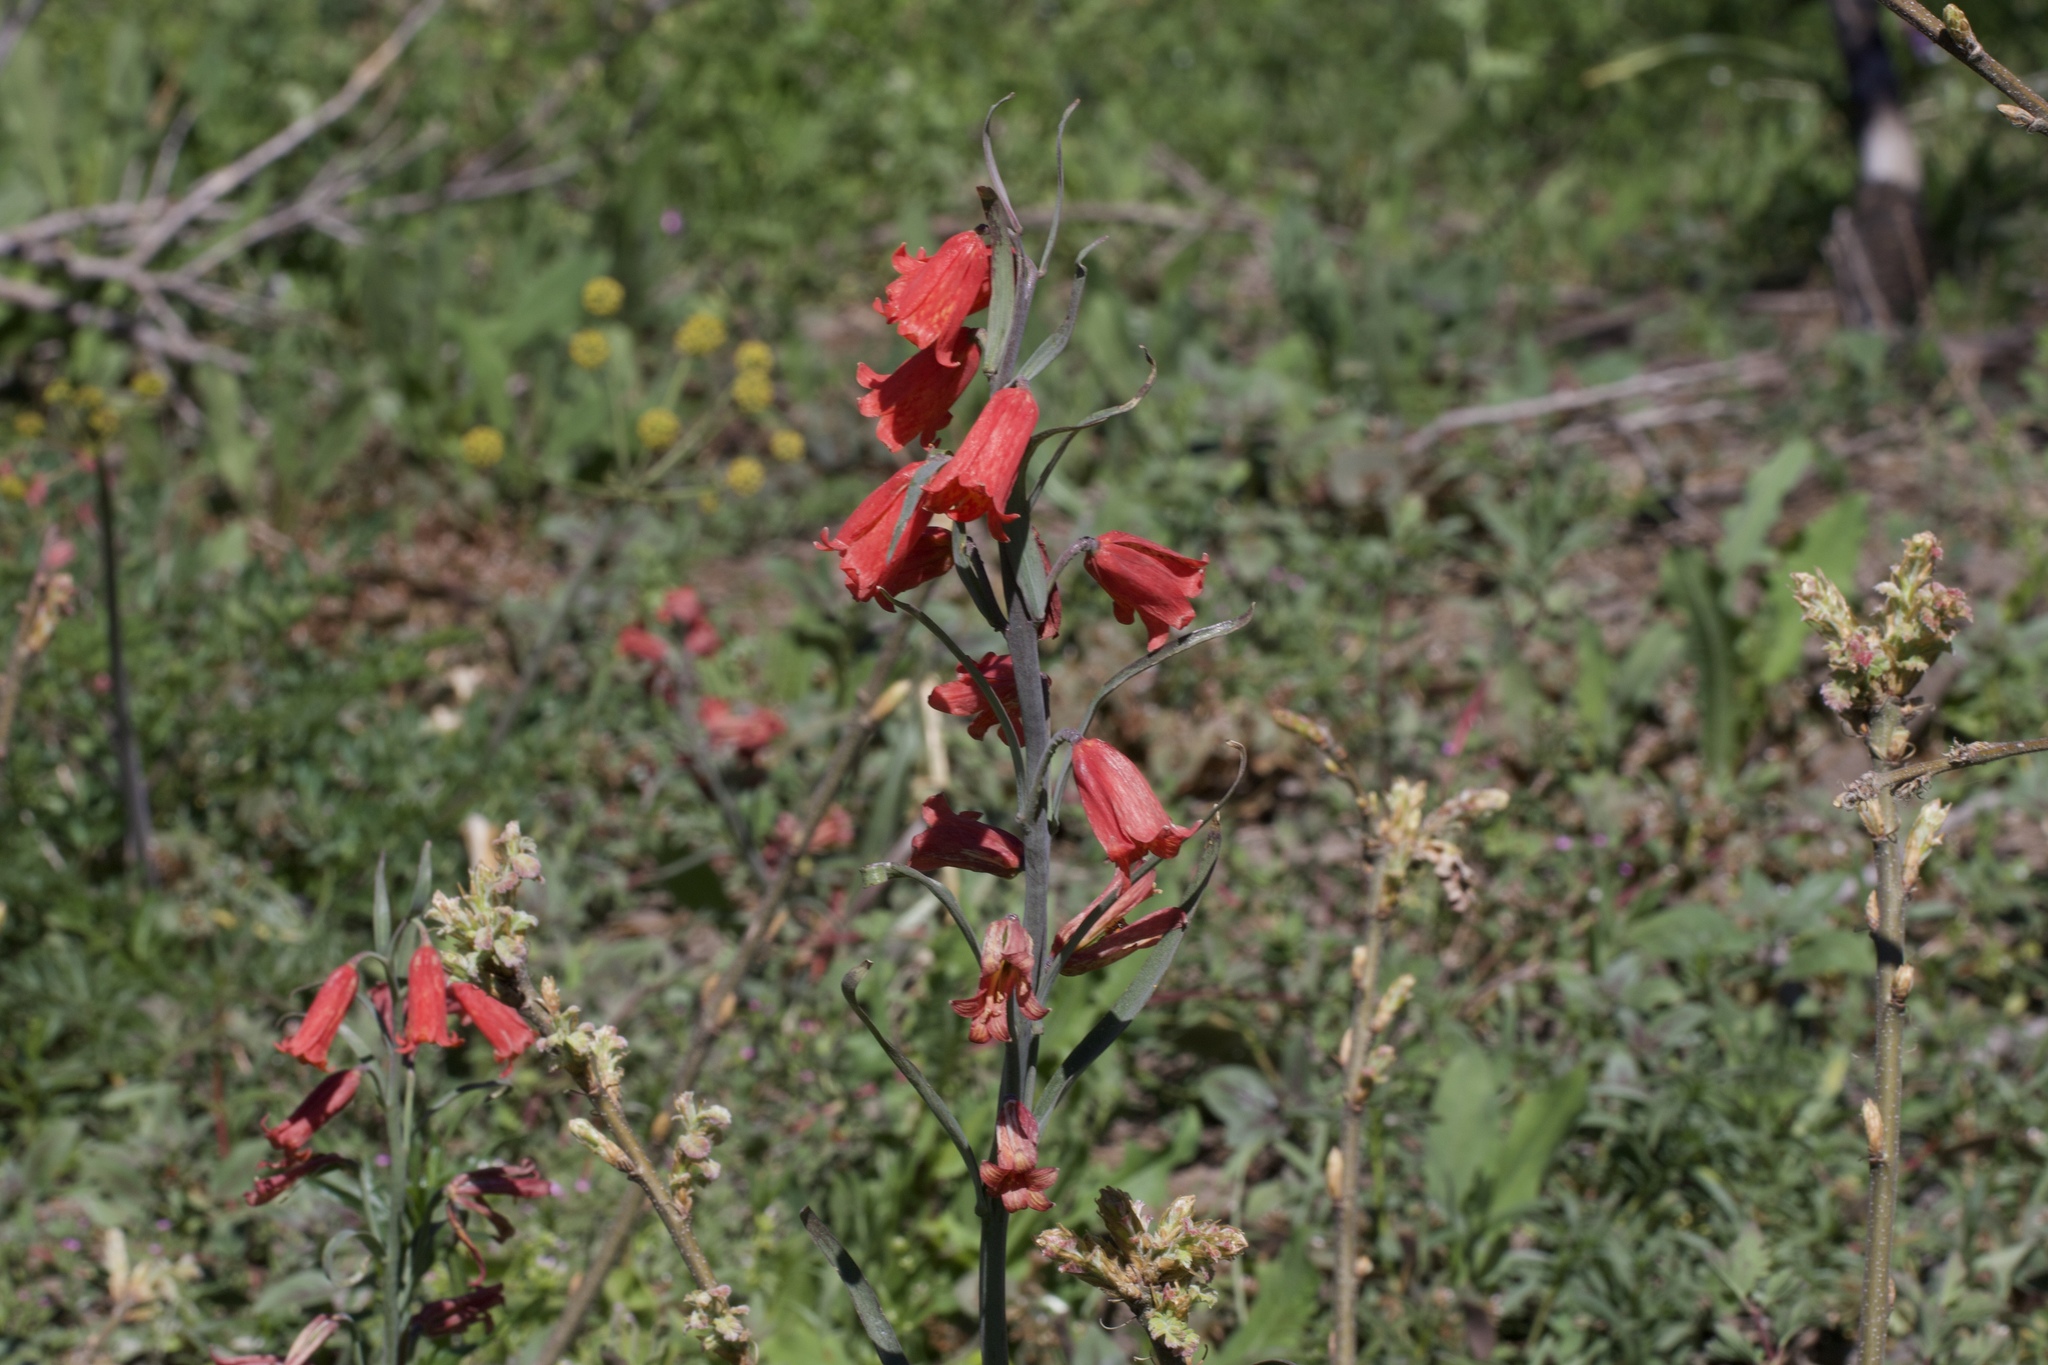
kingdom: Plantae
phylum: Tracheophyta
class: Liliopsida
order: Liliales
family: Liliaceae
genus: Fritillaria
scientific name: Fritillaria recurva
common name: Scarlet fritillary
